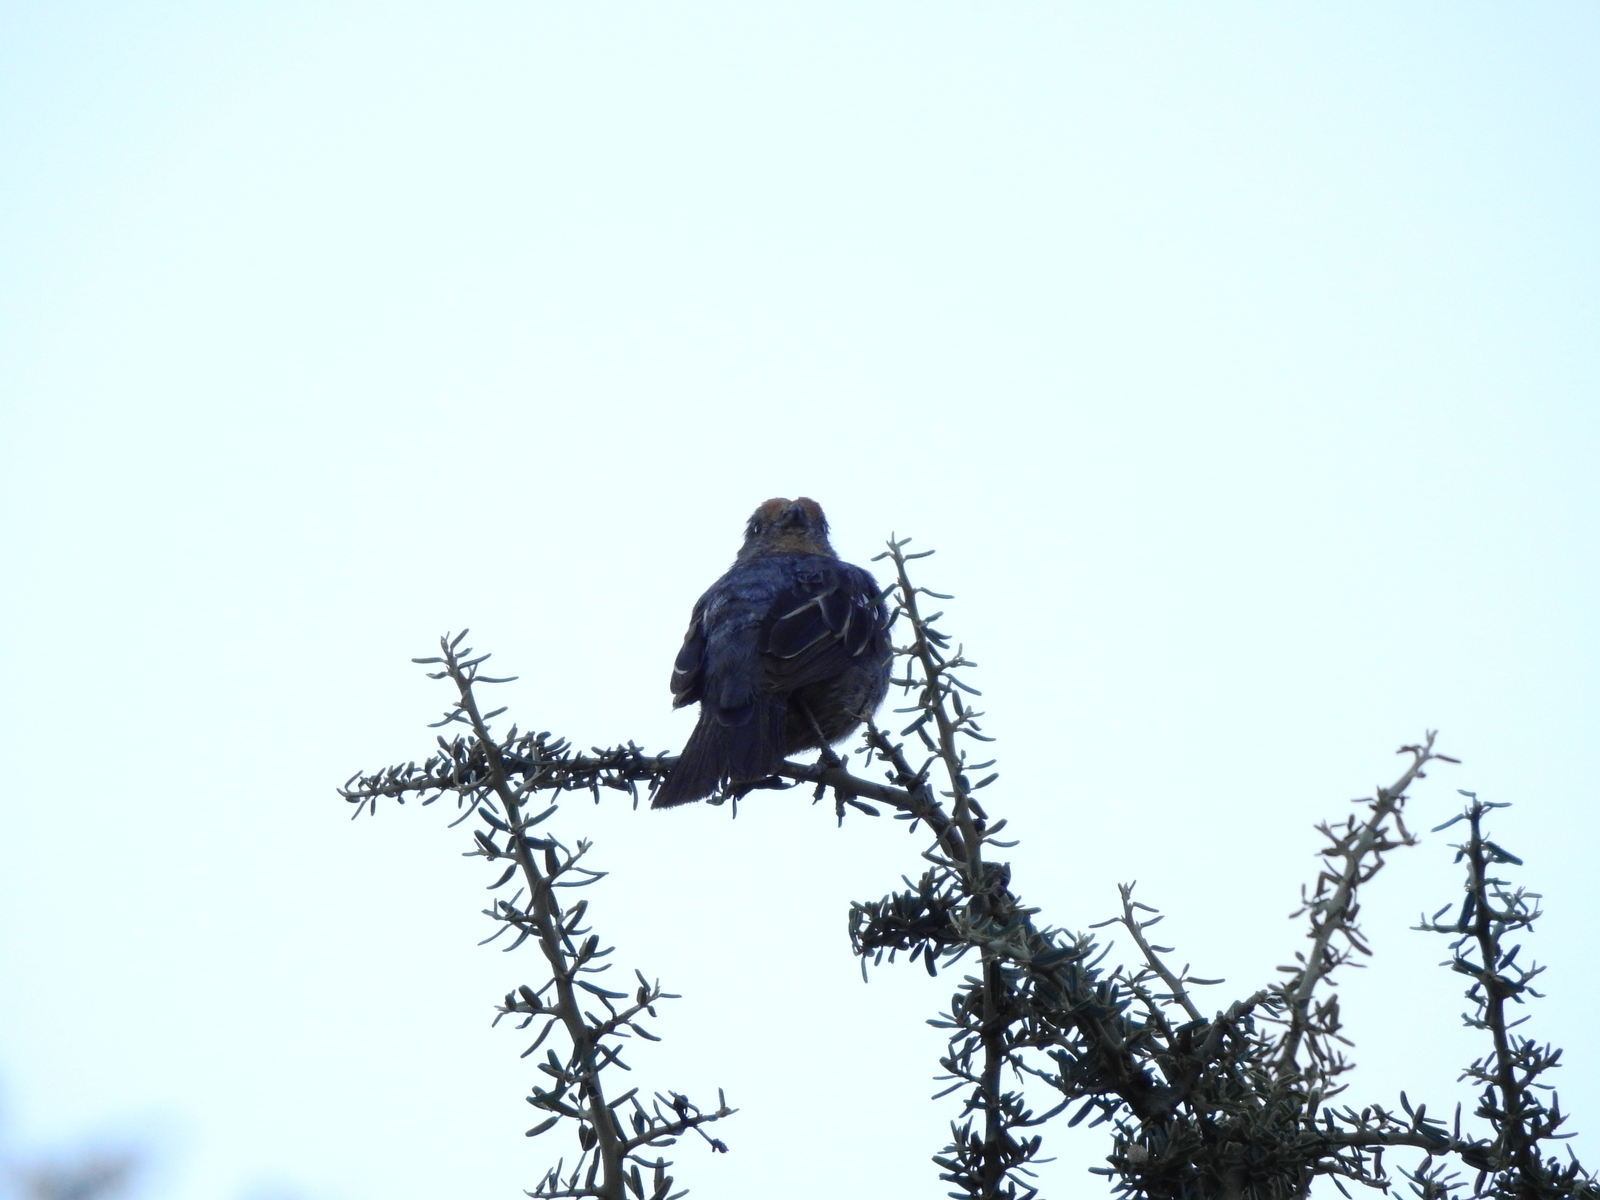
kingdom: Animalia
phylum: Chordata
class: Aves
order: Passeriformes
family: Cotingidae
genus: Phytotoma
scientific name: Phytotoma rutila
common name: White-tipped plantcutter
